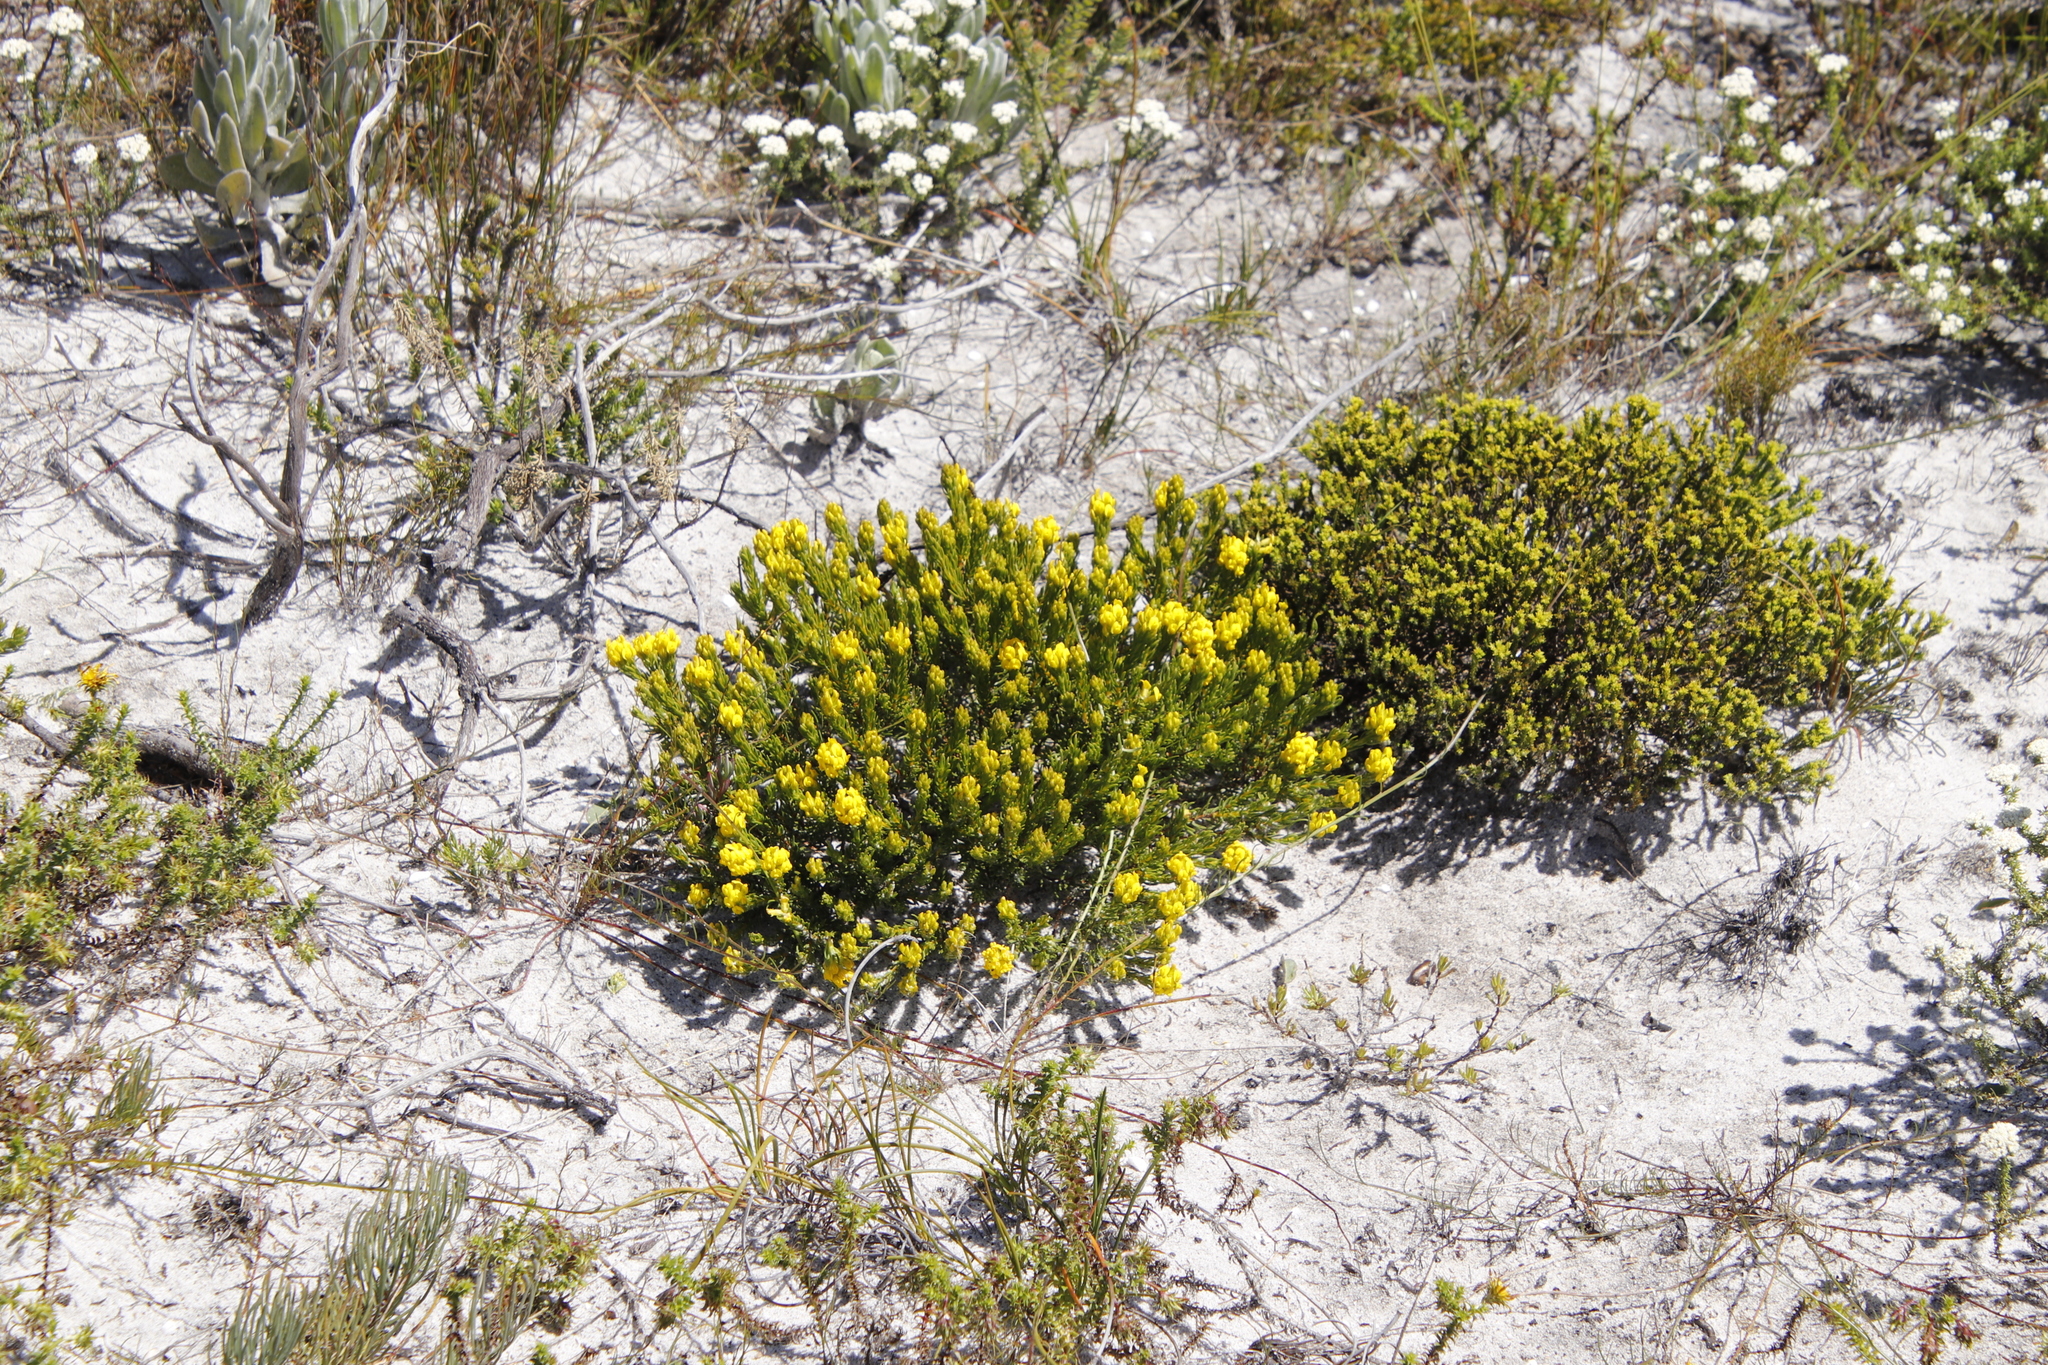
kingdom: Plantae
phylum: Tracheophyta
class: Magnoliopsida
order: Fabales
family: Fabaceae
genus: Aspalathus
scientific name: Aspalathus callosa
